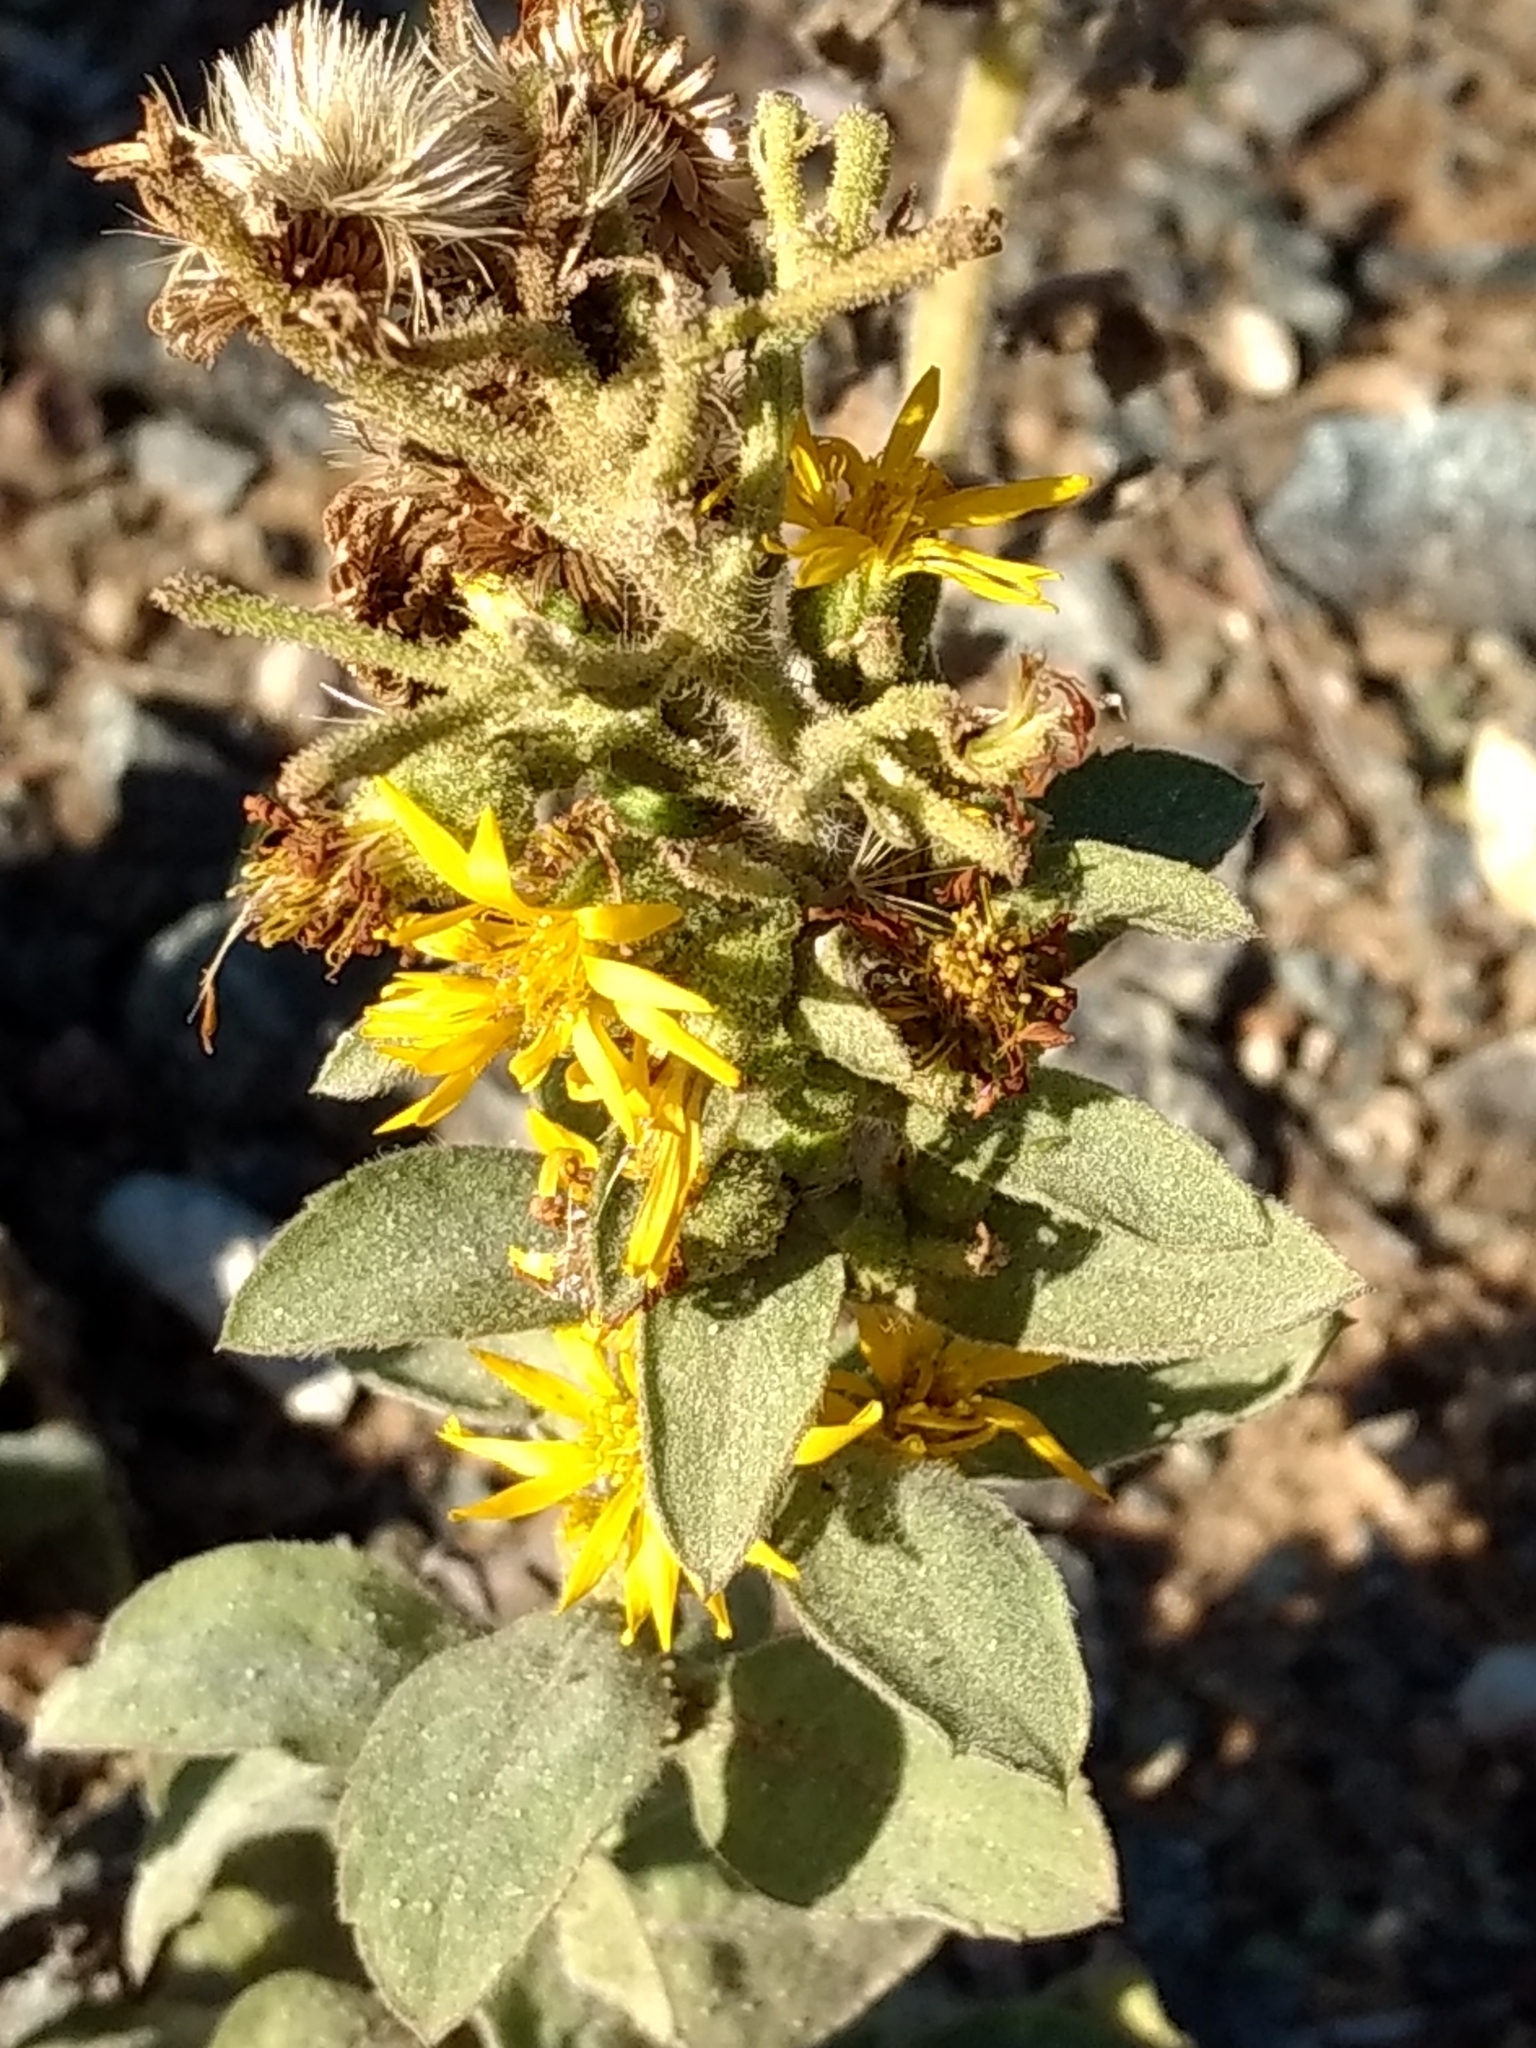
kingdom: Plantae
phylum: Tracheophyta
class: Magnoliopsida
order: Asterales
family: Asteraceae
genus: Heterotheca
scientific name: Heterotheca grandiflora
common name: Telegraphweed
